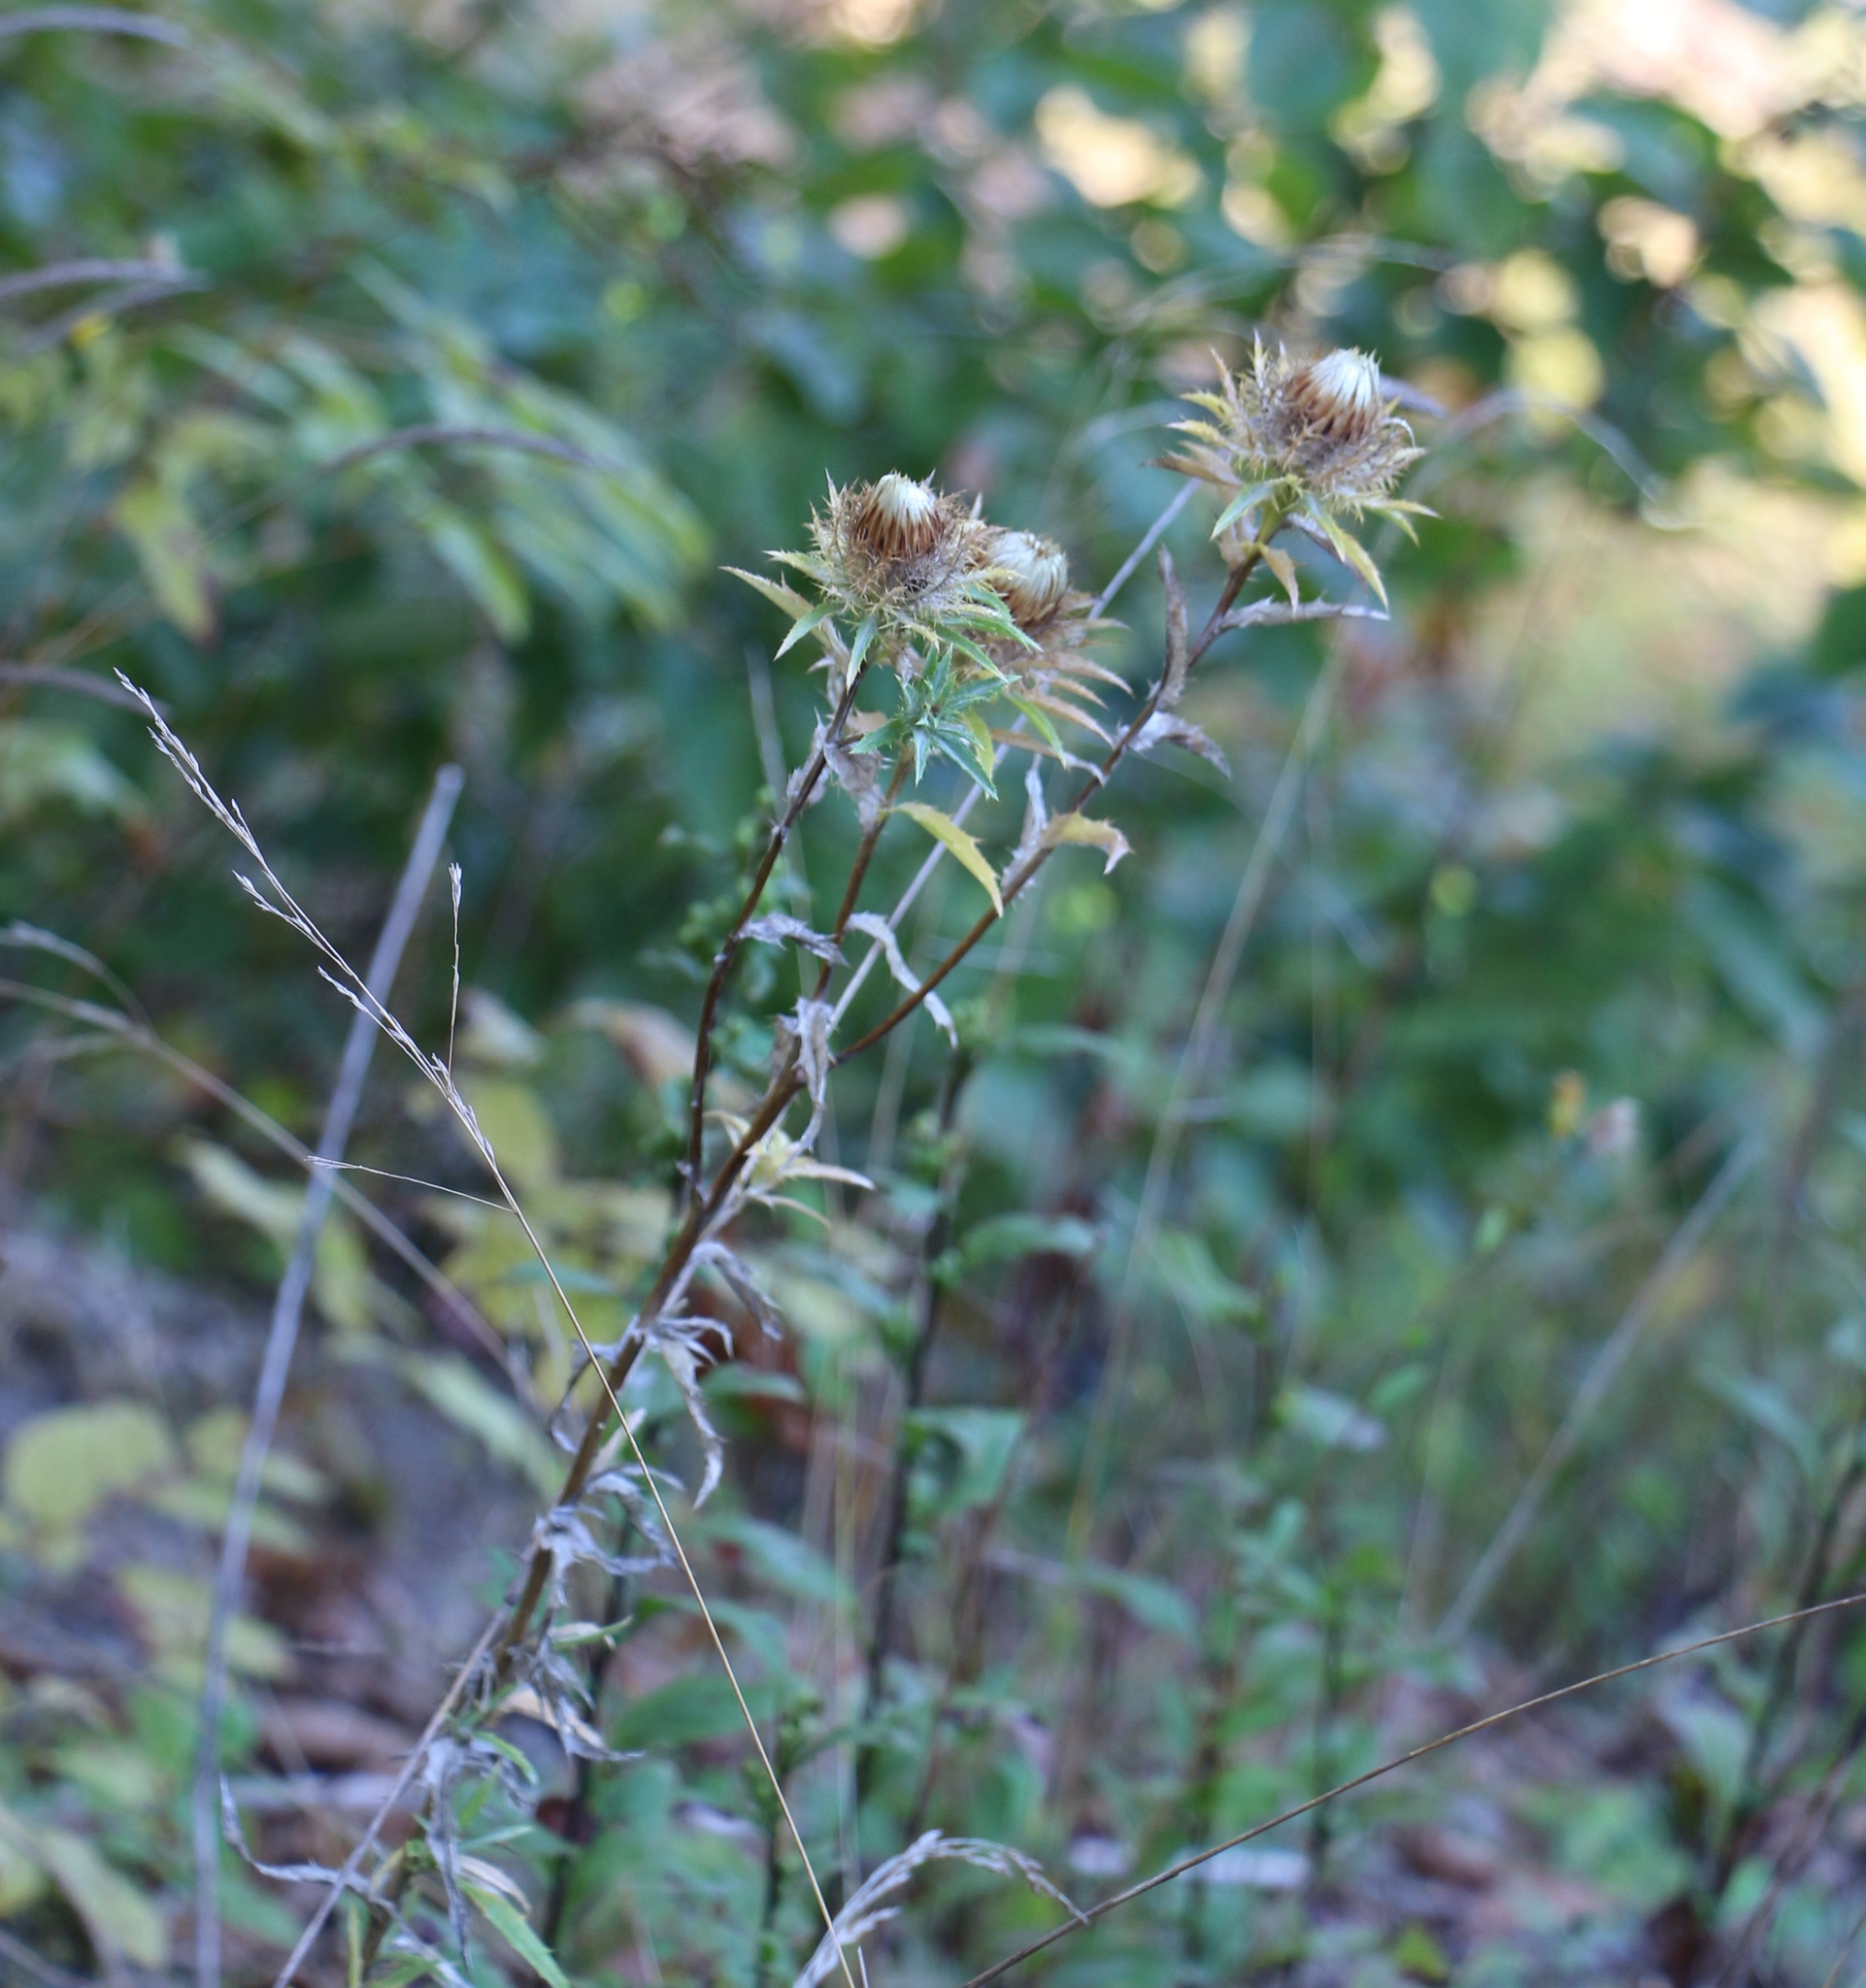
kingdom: Plantae
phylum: Tracheophyta
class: Magnoliopsida
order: Asterales
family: Asteraceae
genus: Carlina
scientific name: Carlina biebersteinii
